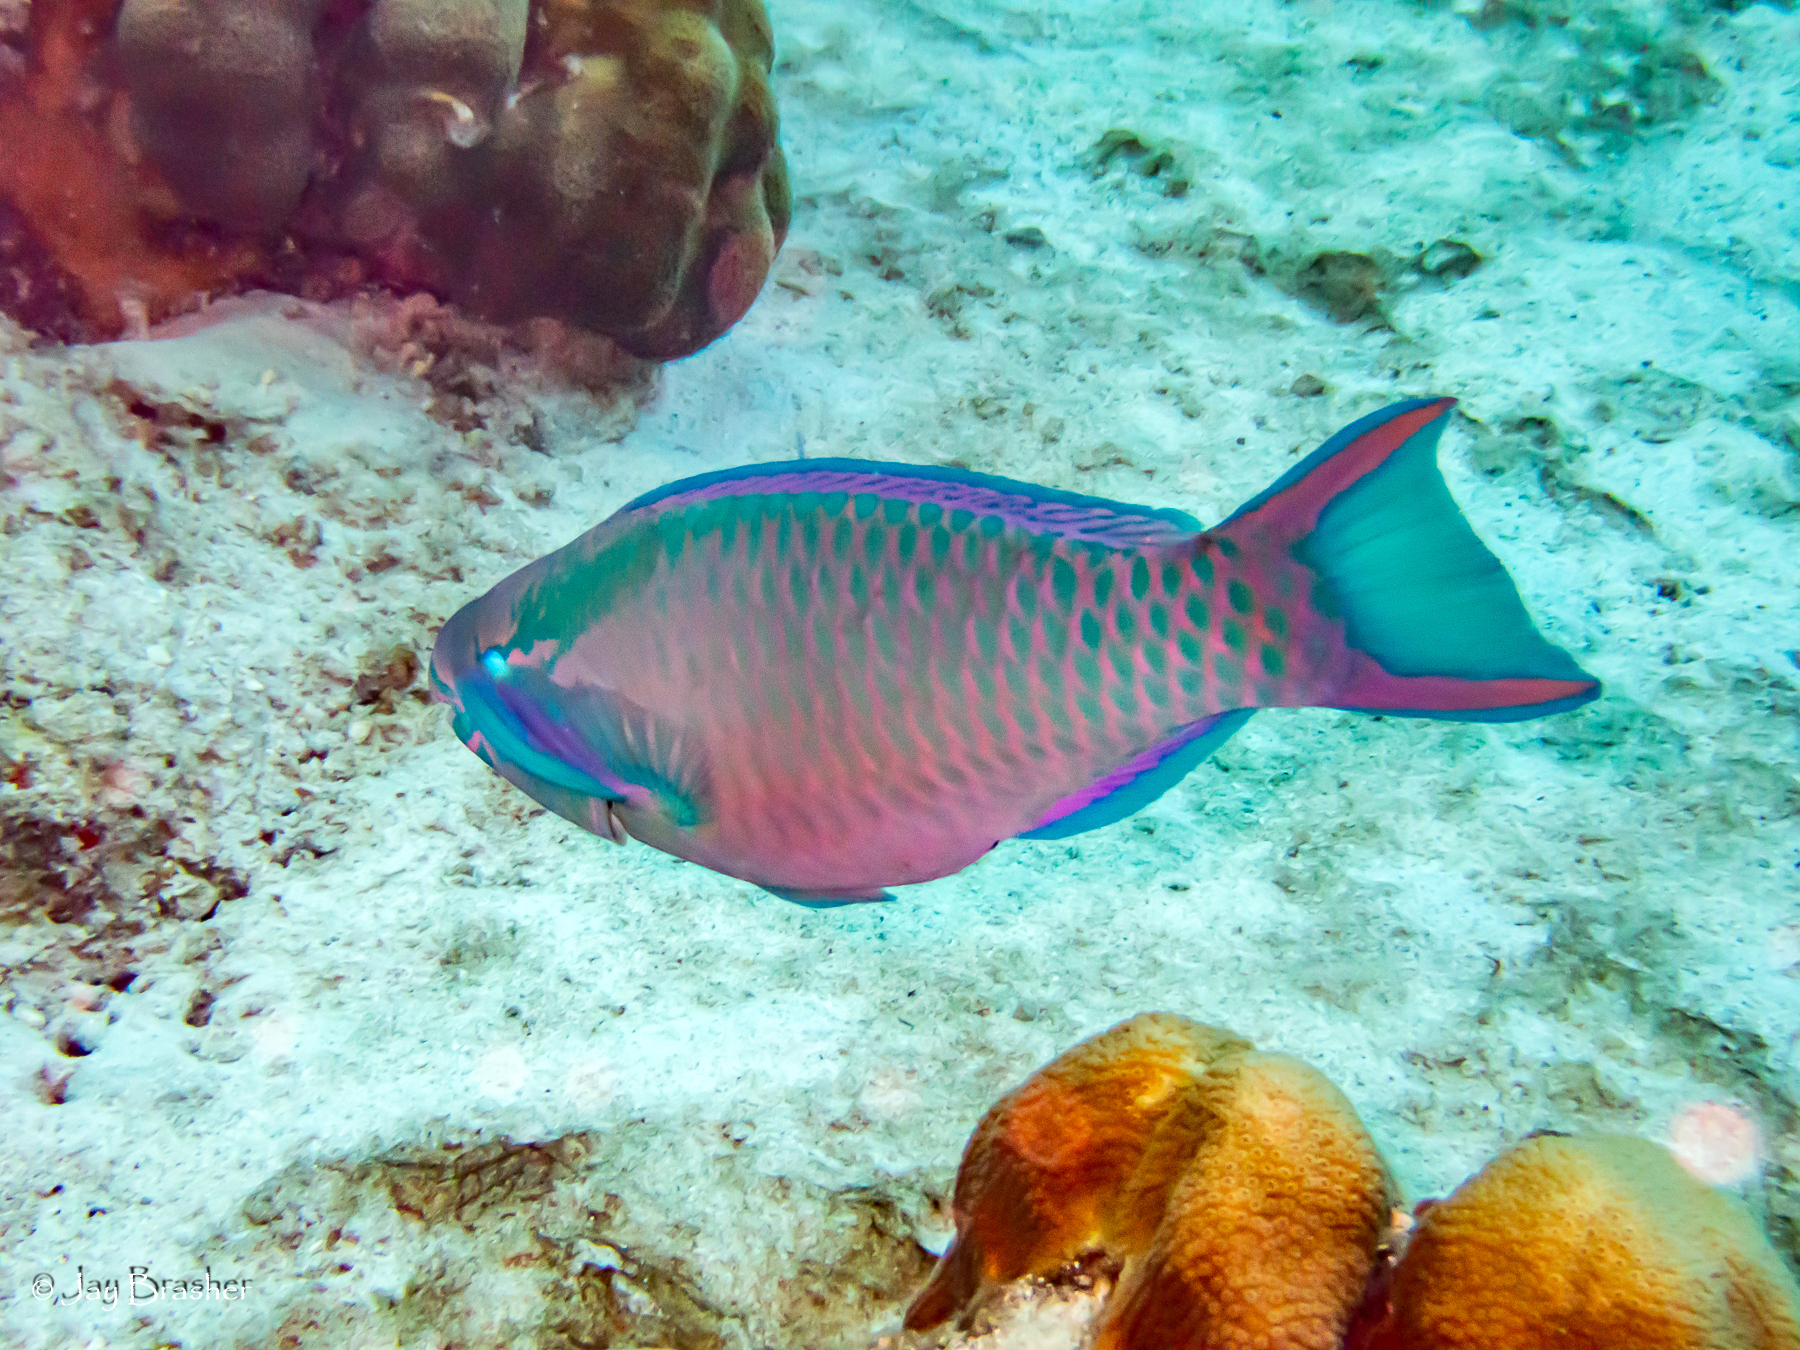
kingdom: Animalia
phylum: Chordata
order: Perciformes
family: Scaridae
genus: Scarus
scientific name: Scarus vetula
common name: Queen parrotfish
